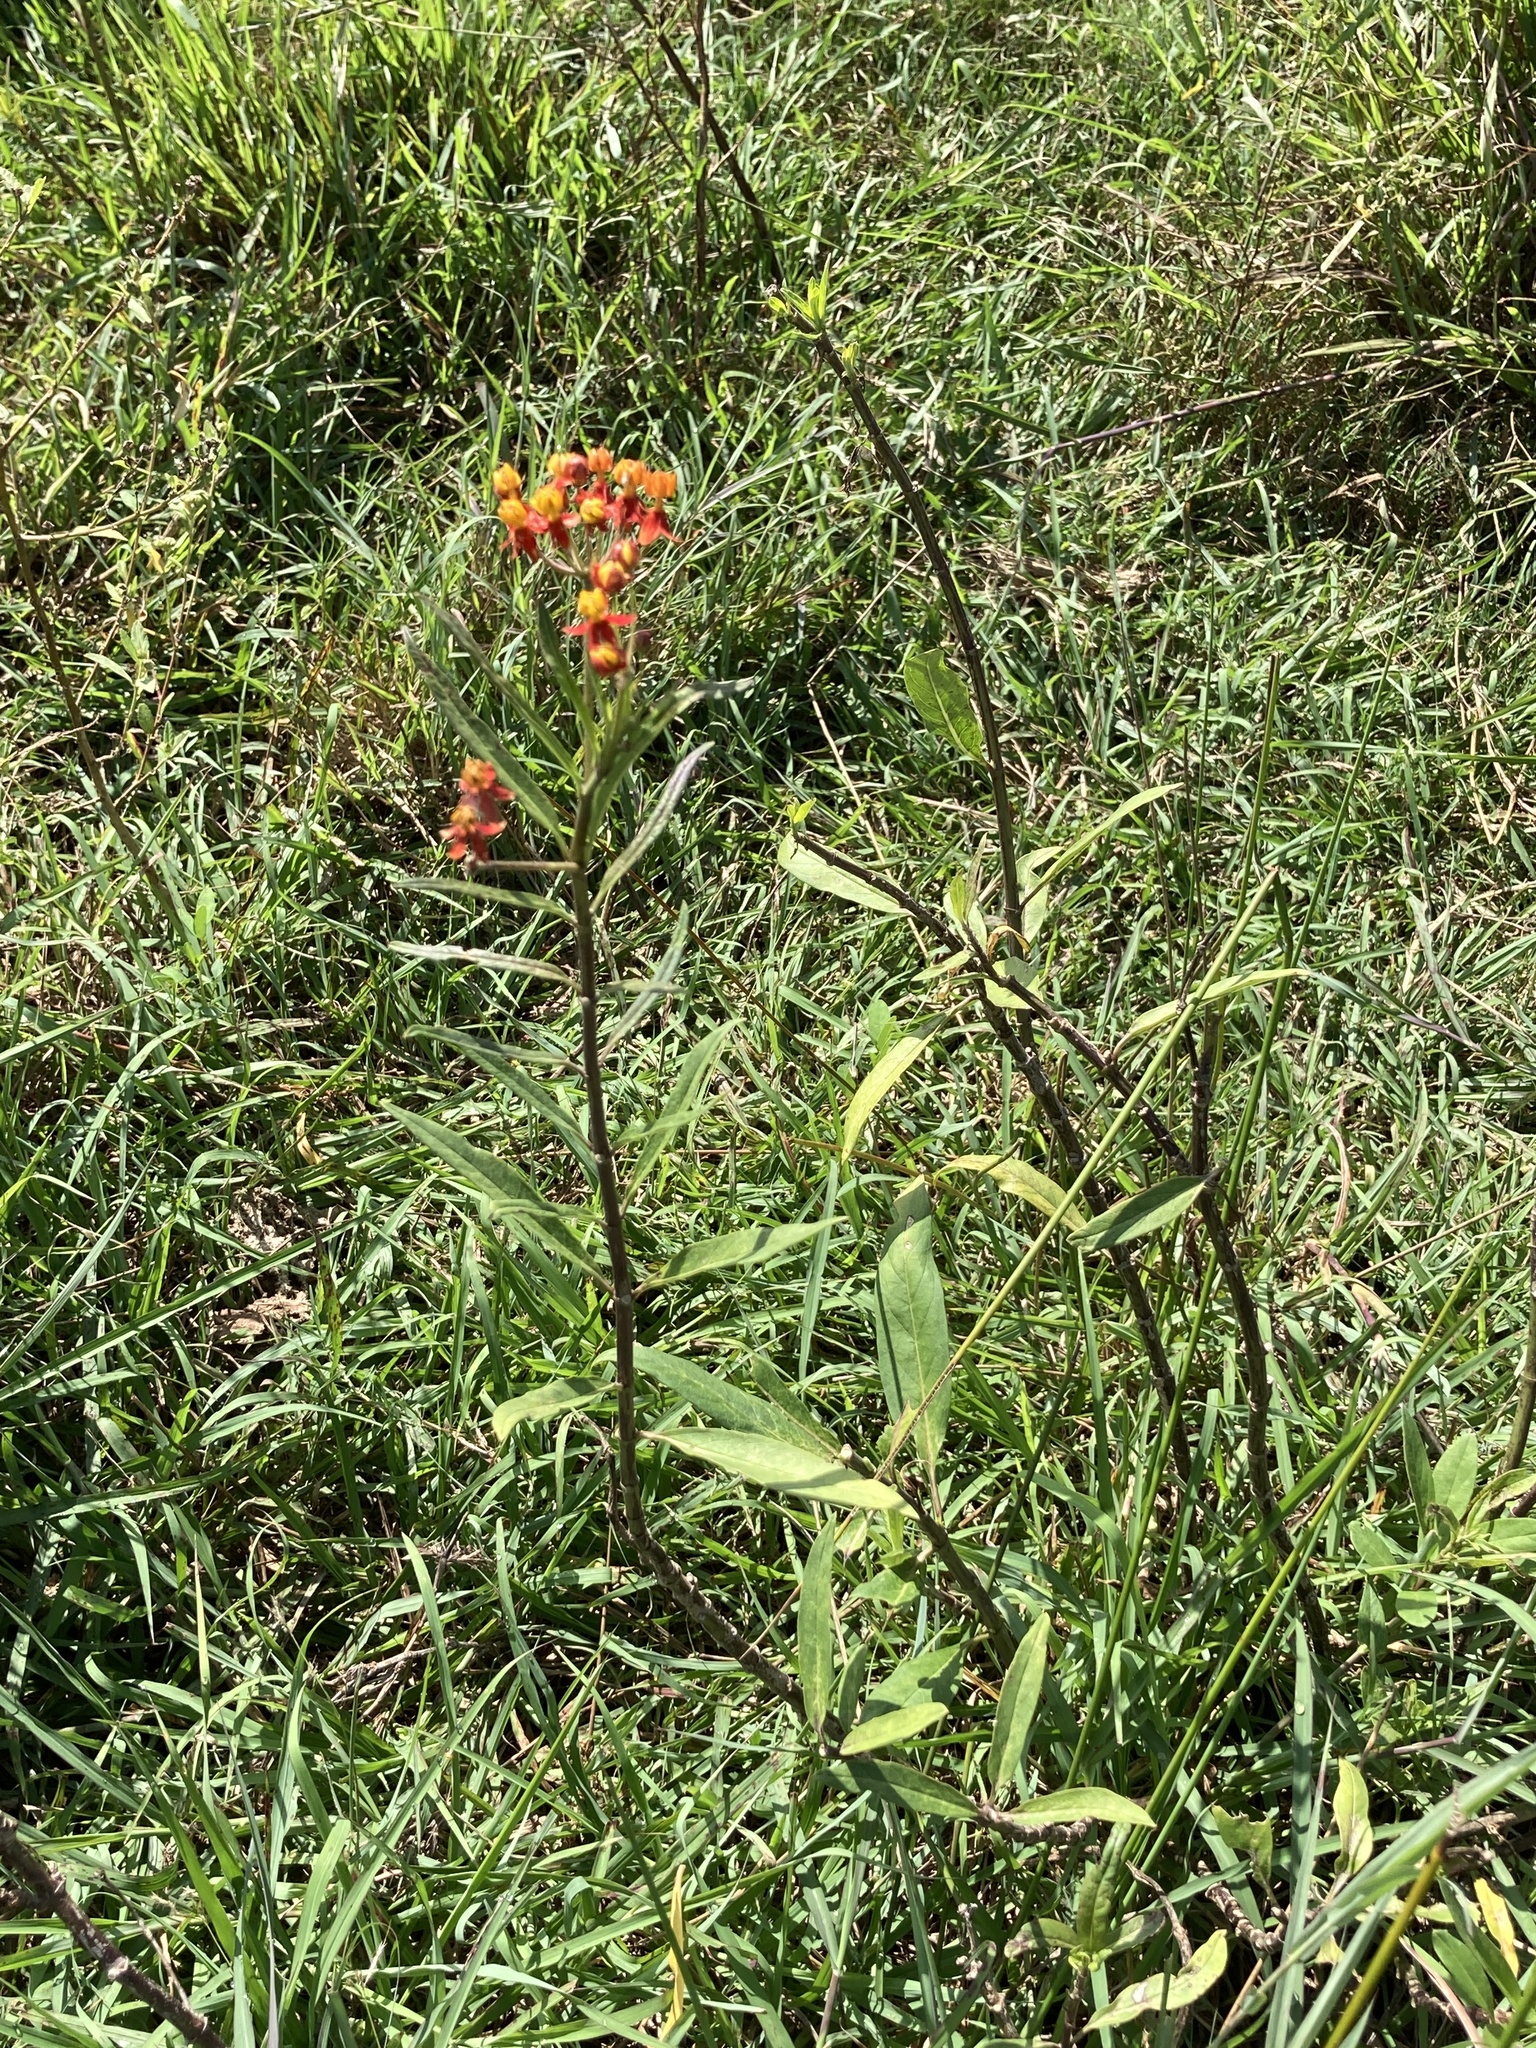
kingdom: Plantae
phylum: Tracheophyta
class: Magnoliopsida
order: Gentianales
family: Apocynaceae
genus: Asclepias
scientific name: Asclepias curassavica
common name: Bloodflower
